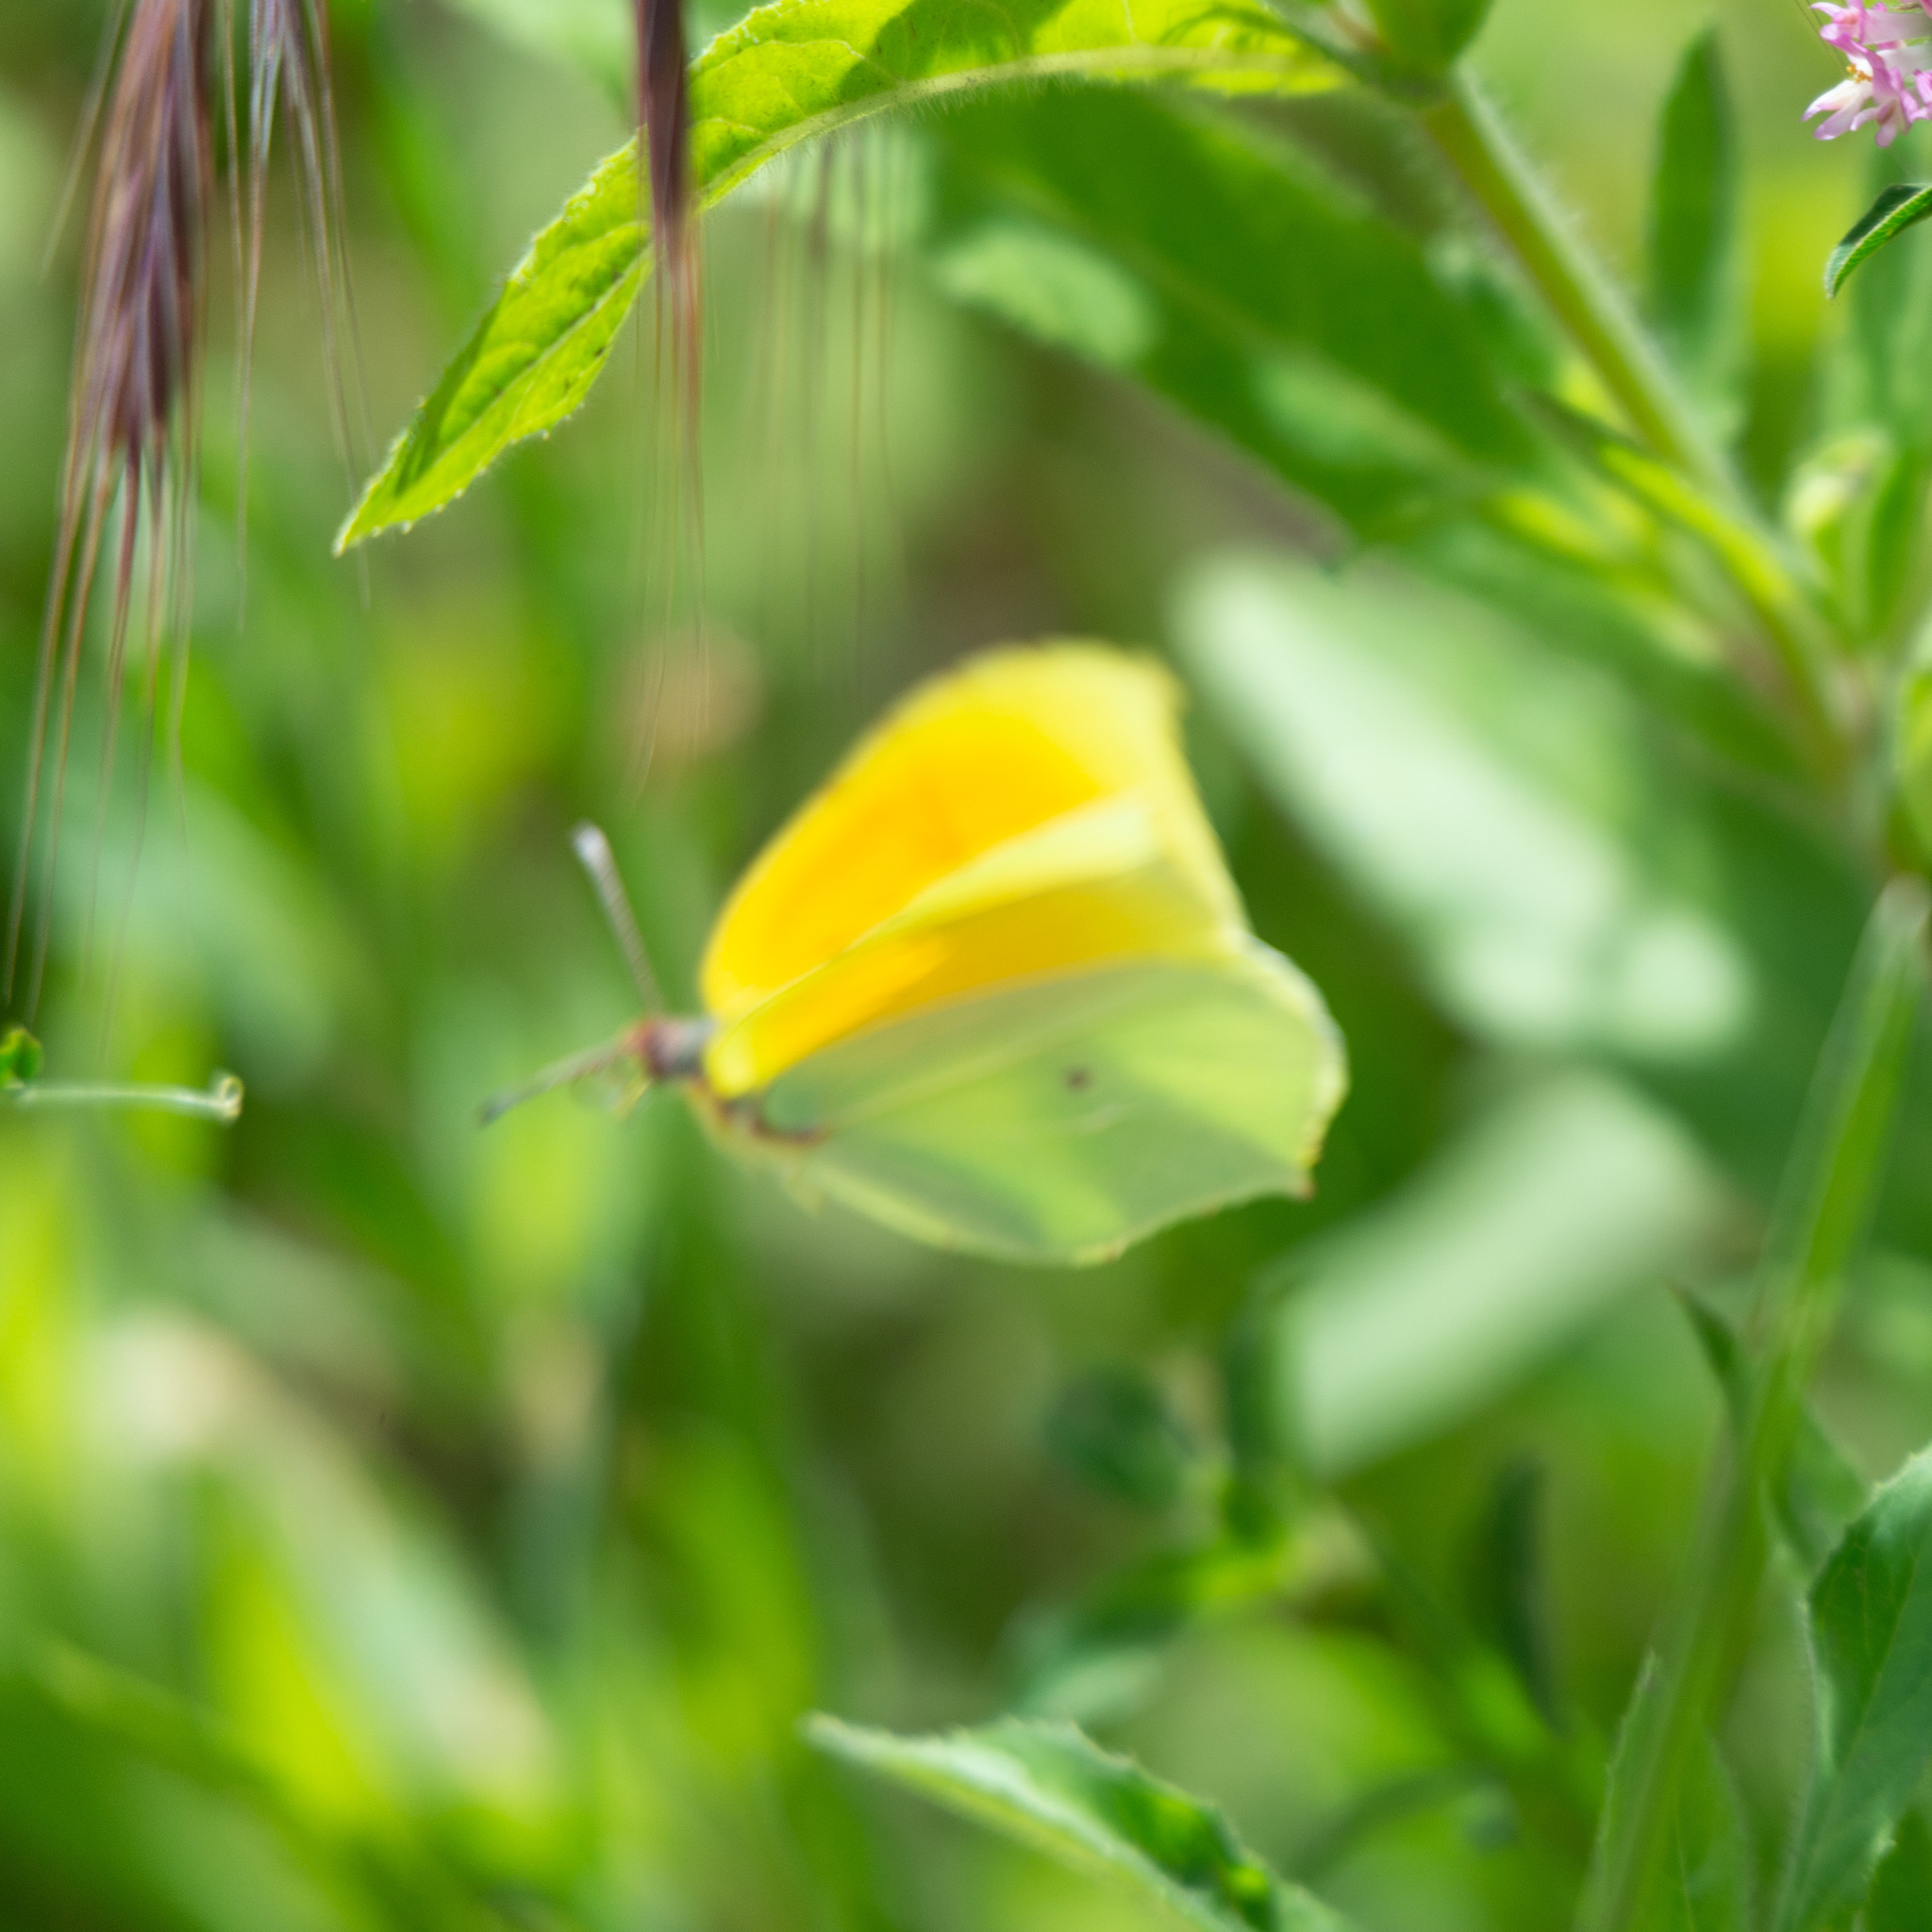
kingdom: Animalia
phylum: Arthropoda
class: Insecta
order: Lepidoptera
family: Pieridae
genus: Gonepteryx
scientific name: Gonepteryx cleopatra
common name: Cleopatra
